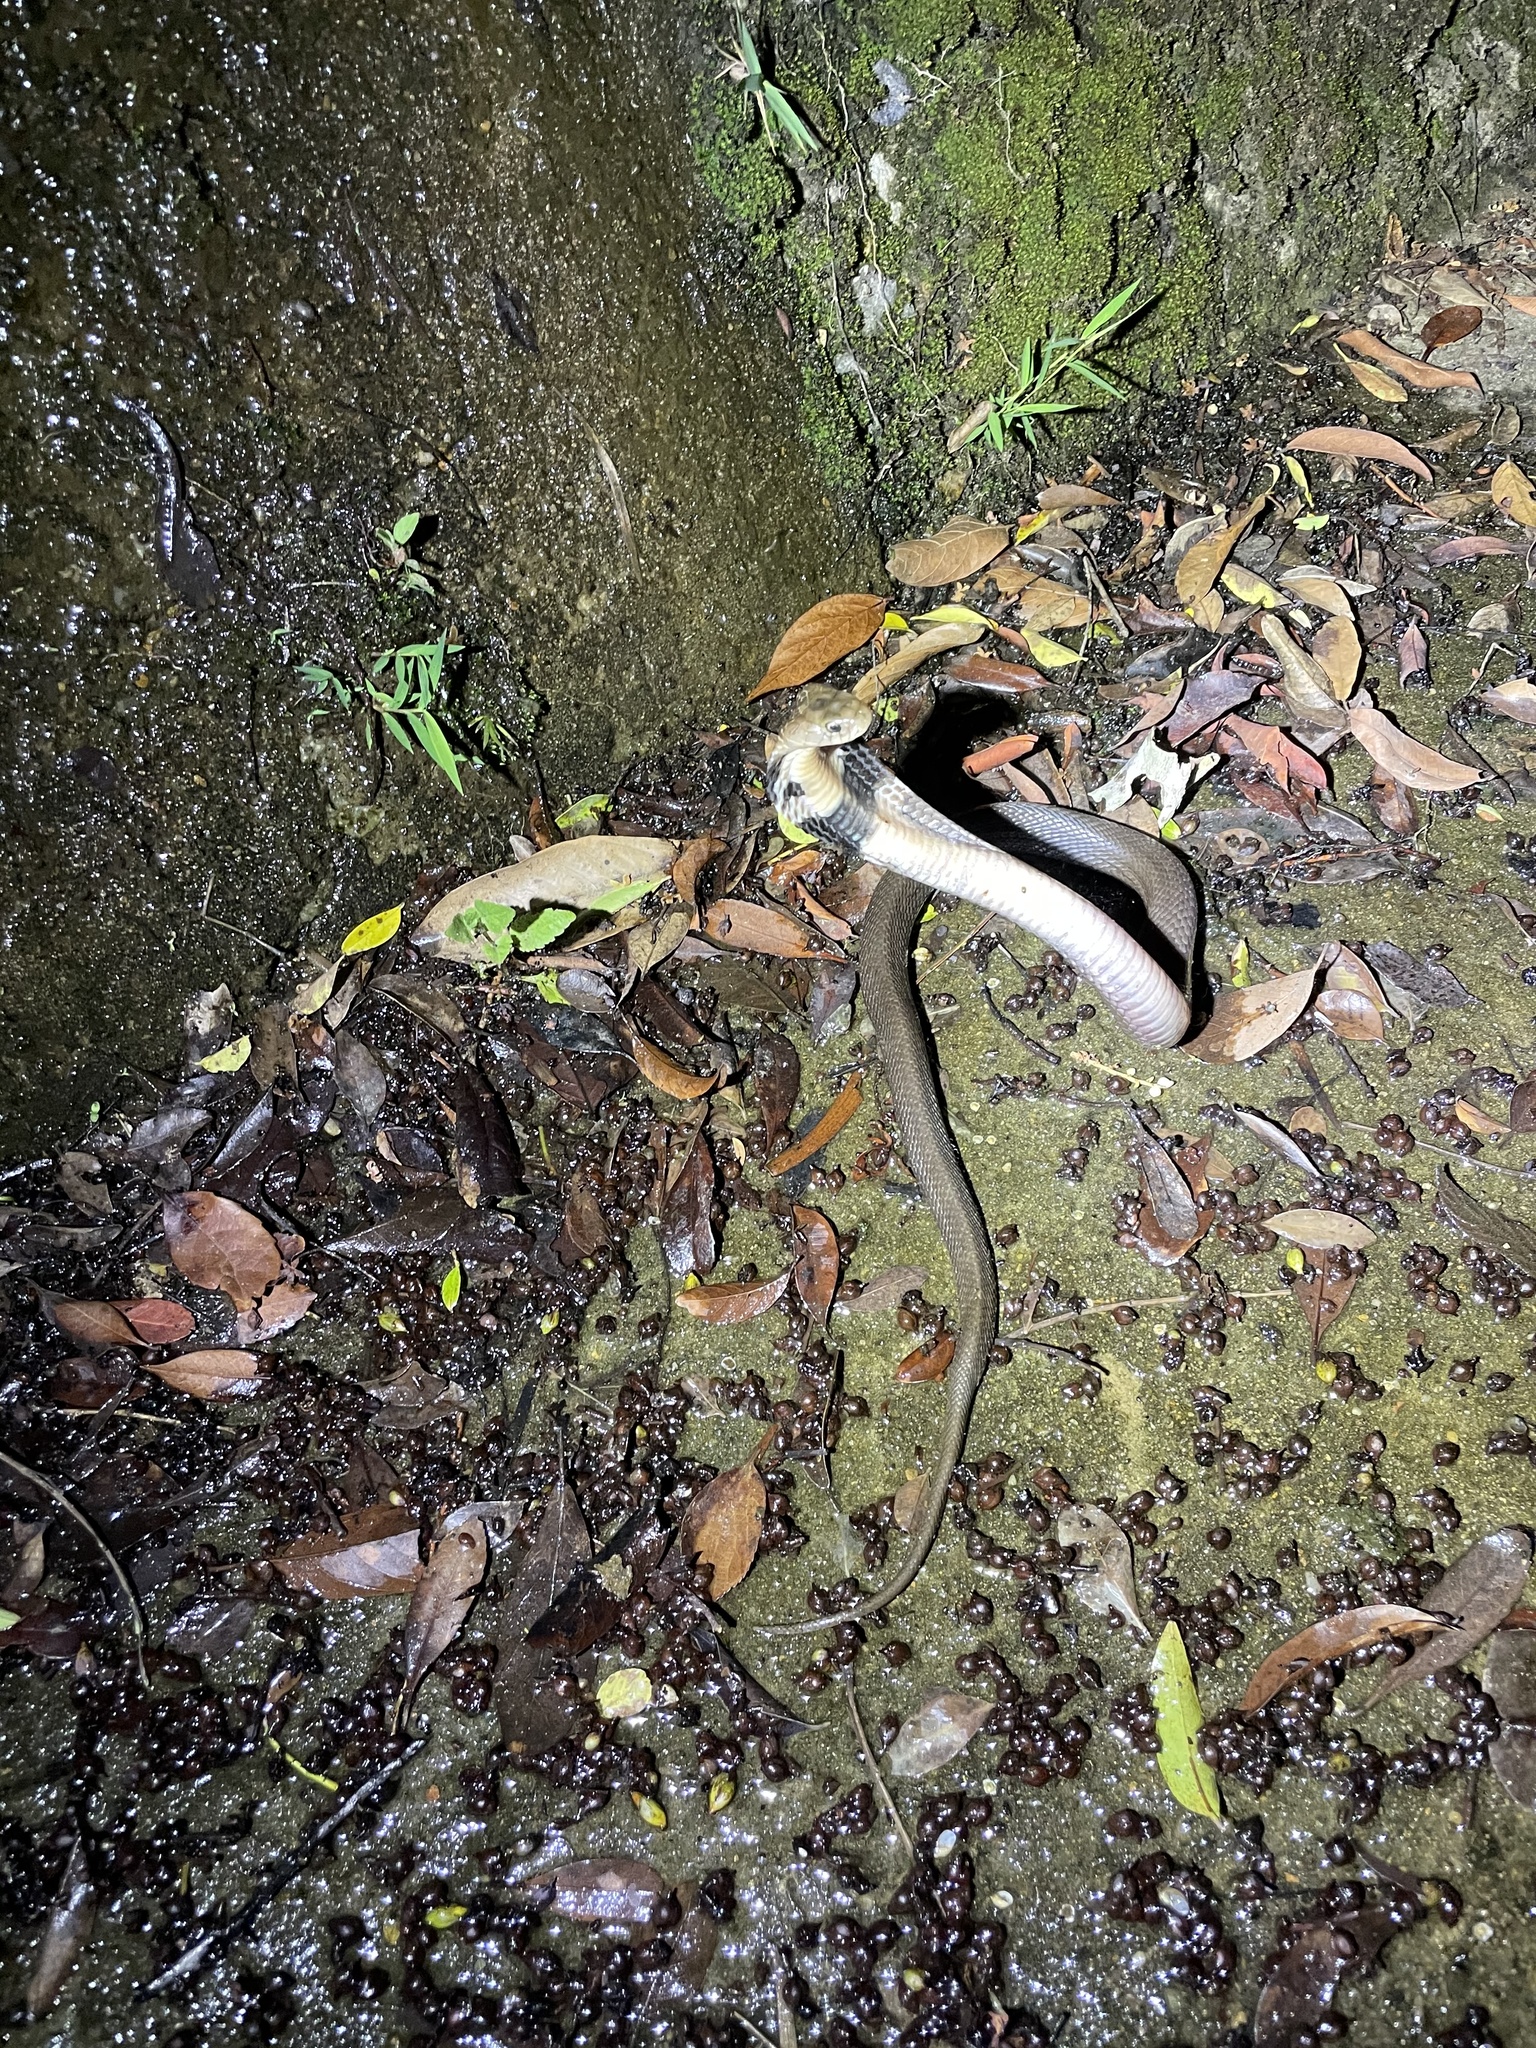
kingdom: Animalia
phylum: Chordata
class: Squamata
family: Elapidae
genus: Naja
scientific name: Naja atra
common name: Chinese cobra
